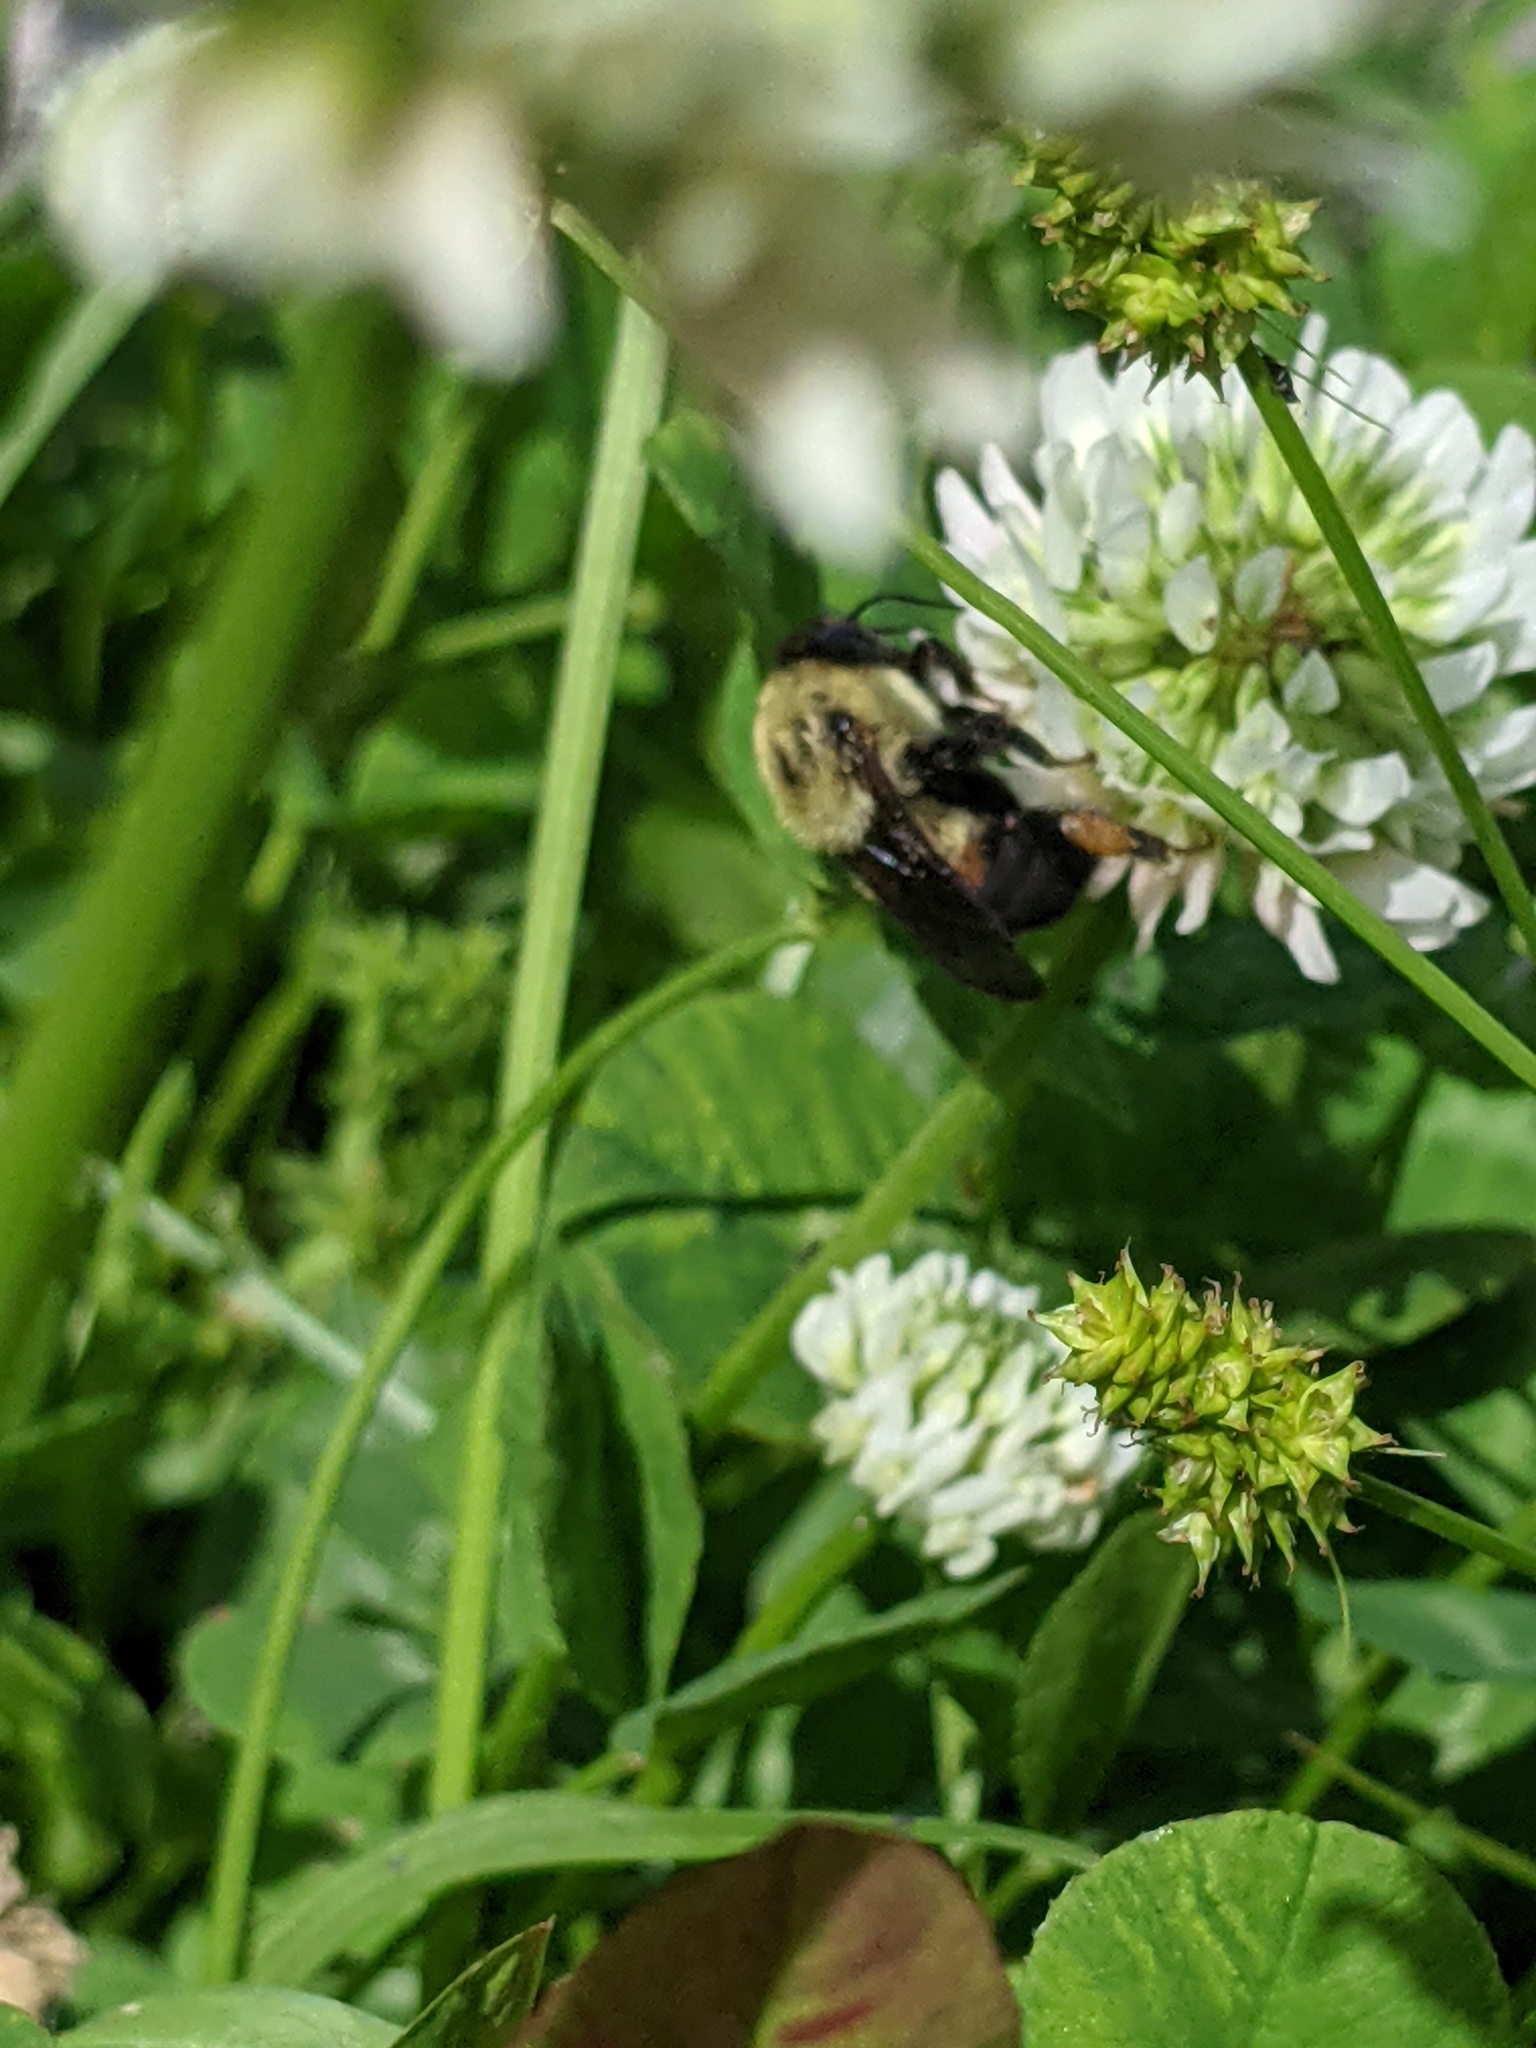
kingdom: Animalia
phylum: Arthropoda
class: Insecta
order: Hymenoptera
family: Apidae
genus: Bombus
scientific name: Bombus griseocollis
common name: Brown-belted bumble bee
